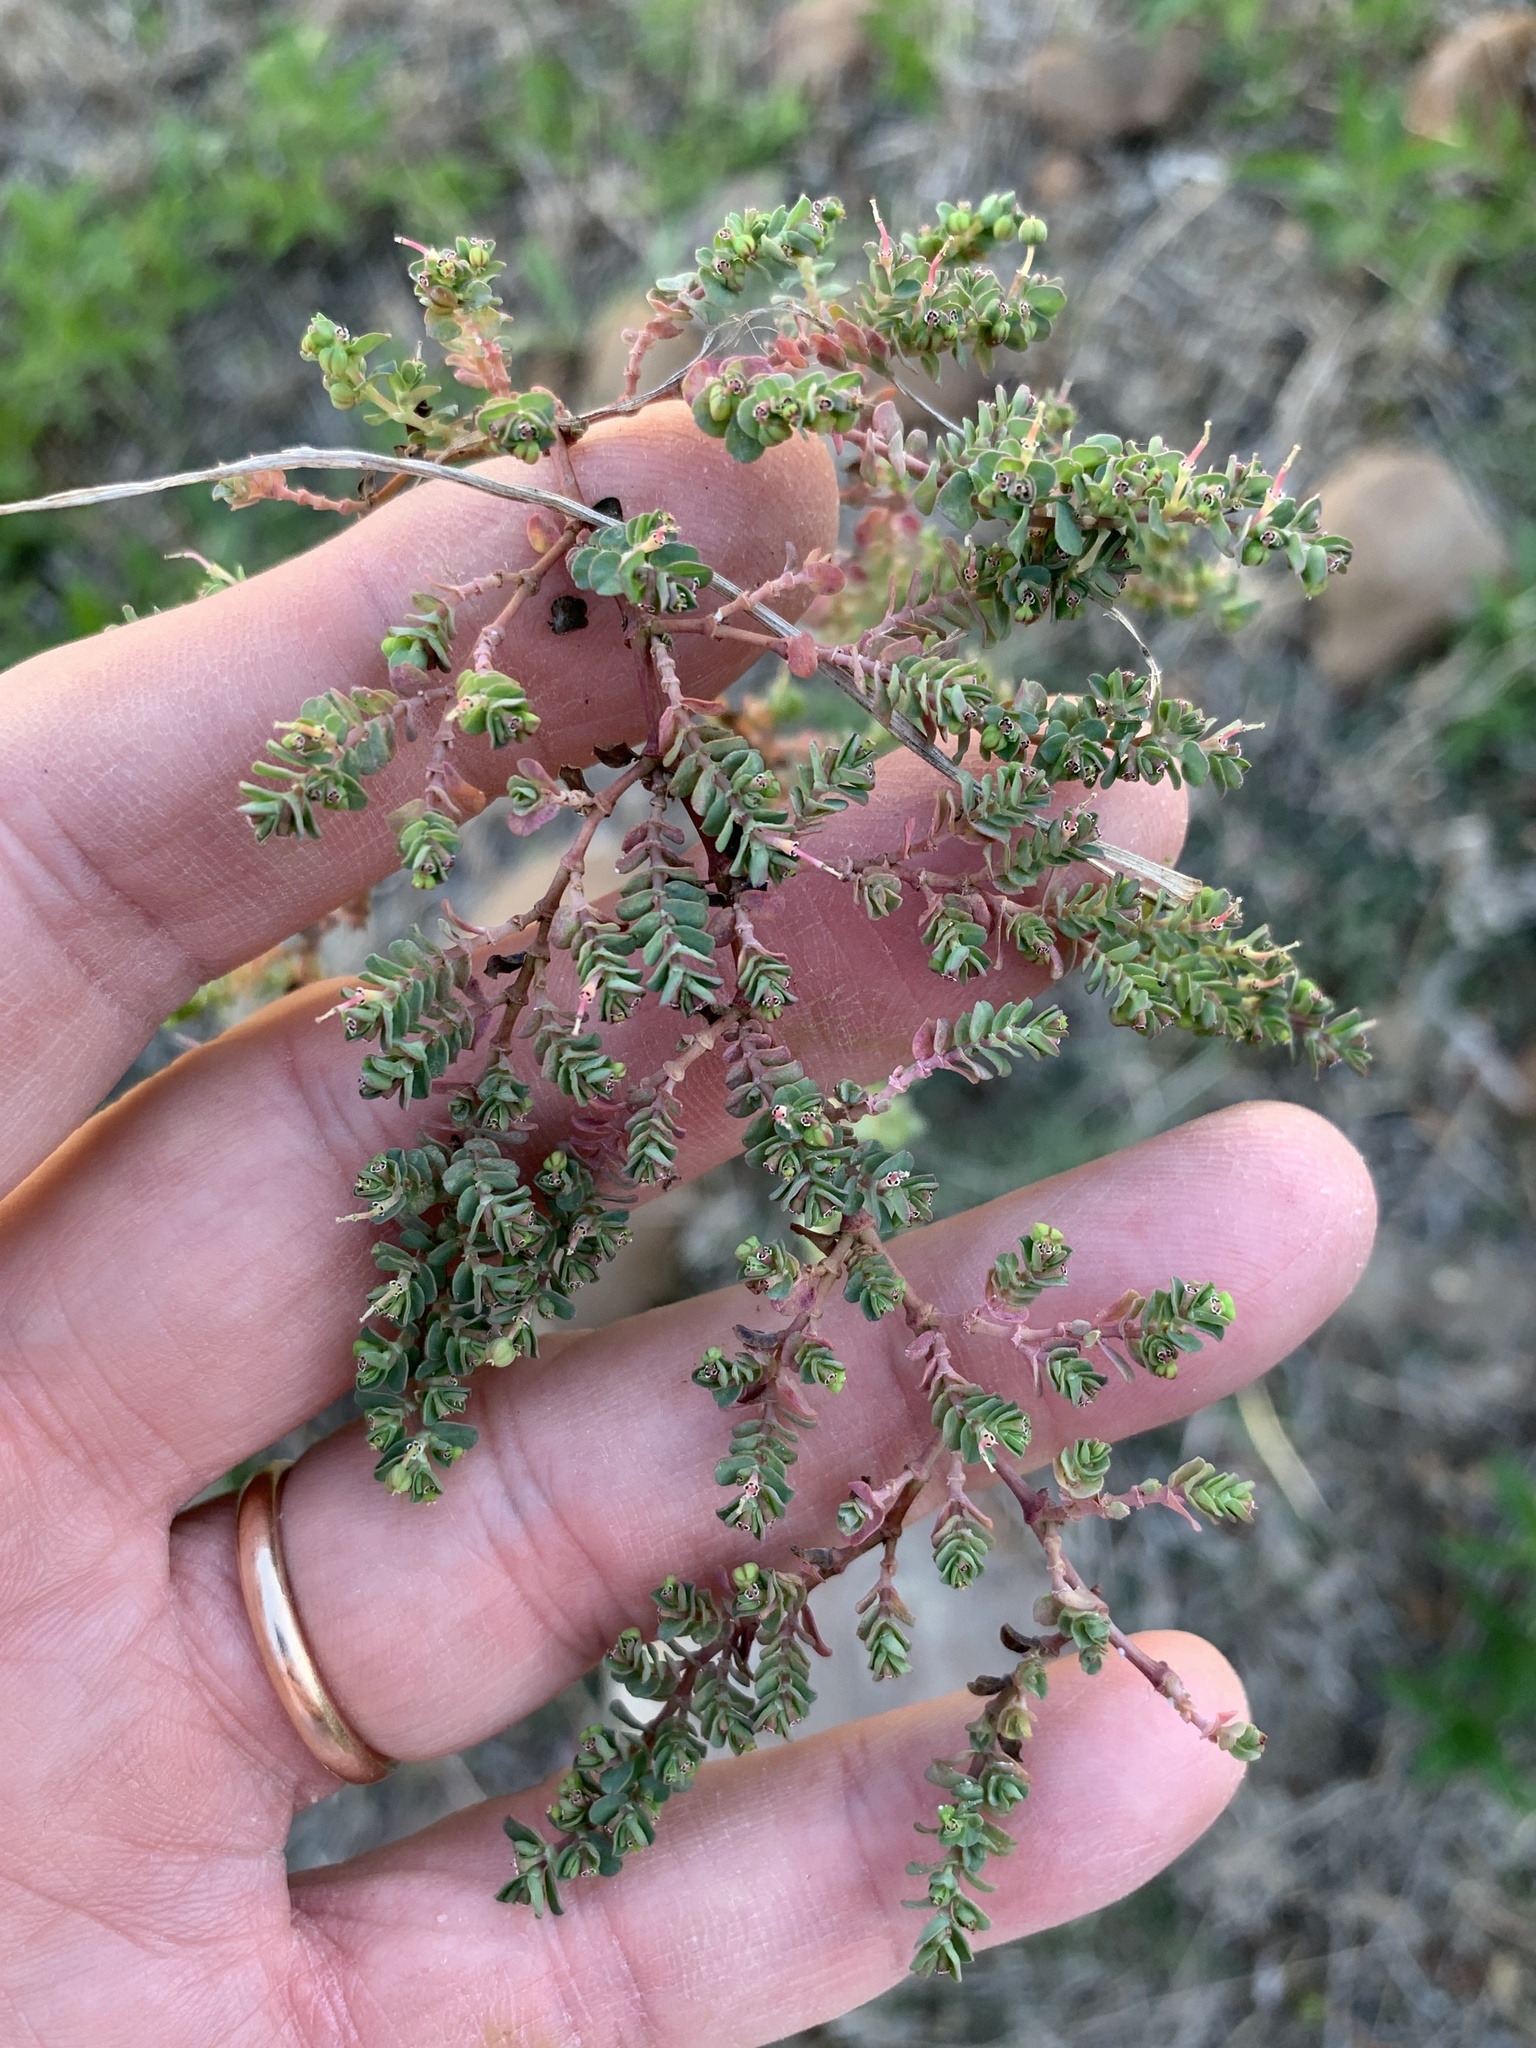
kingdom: Plantae
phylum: Tracheophyta
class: Magnoliopsida
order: Malpighiales
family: Euphorbiaceae
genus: Euphorbia
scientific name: Euphorbia serpens
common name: Matted sandmat
